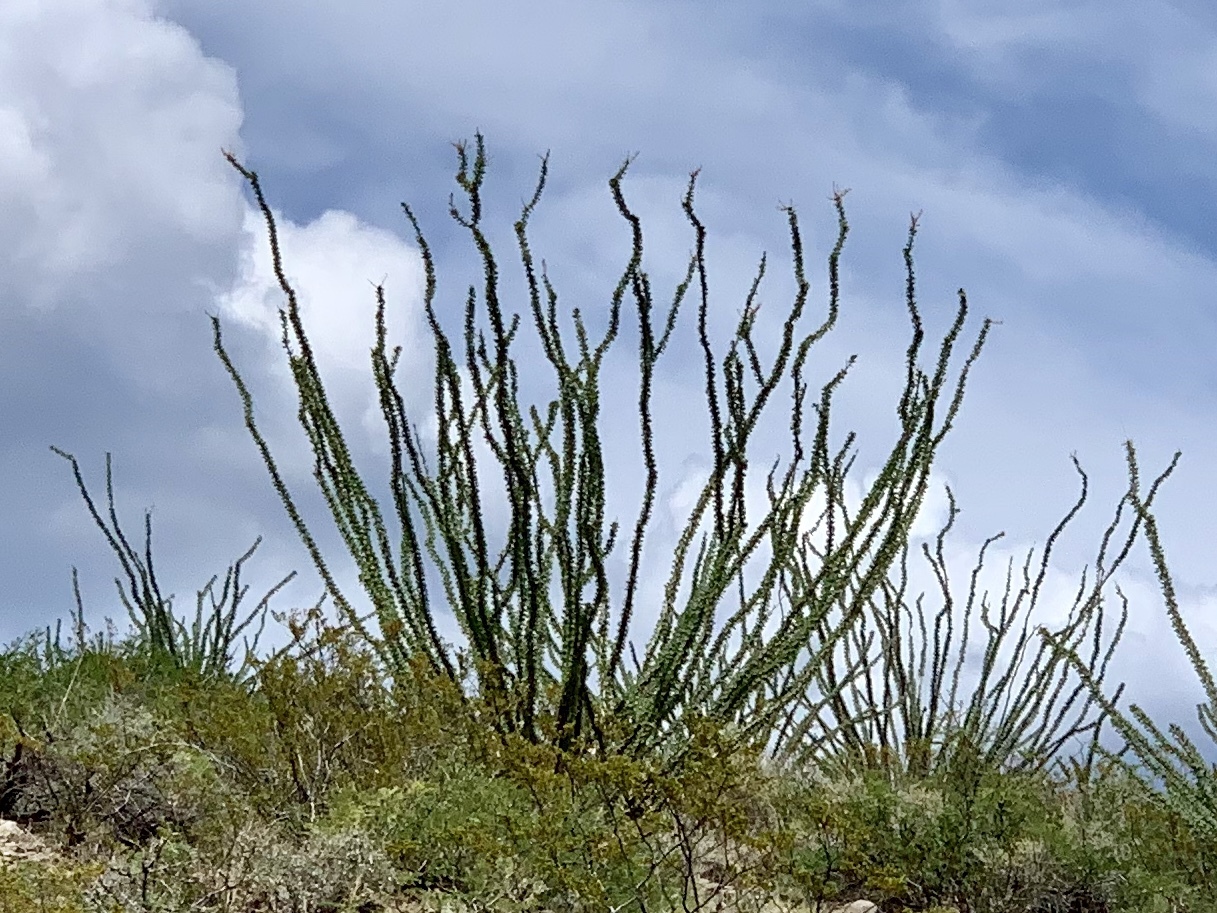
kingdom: Plantae
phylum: Tracheophyta
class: Magnoliopsida
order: Ericales
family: Fouquieriaceae
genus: Fouquieria
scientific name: Fouquieria splendens
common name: Vine-cactus
